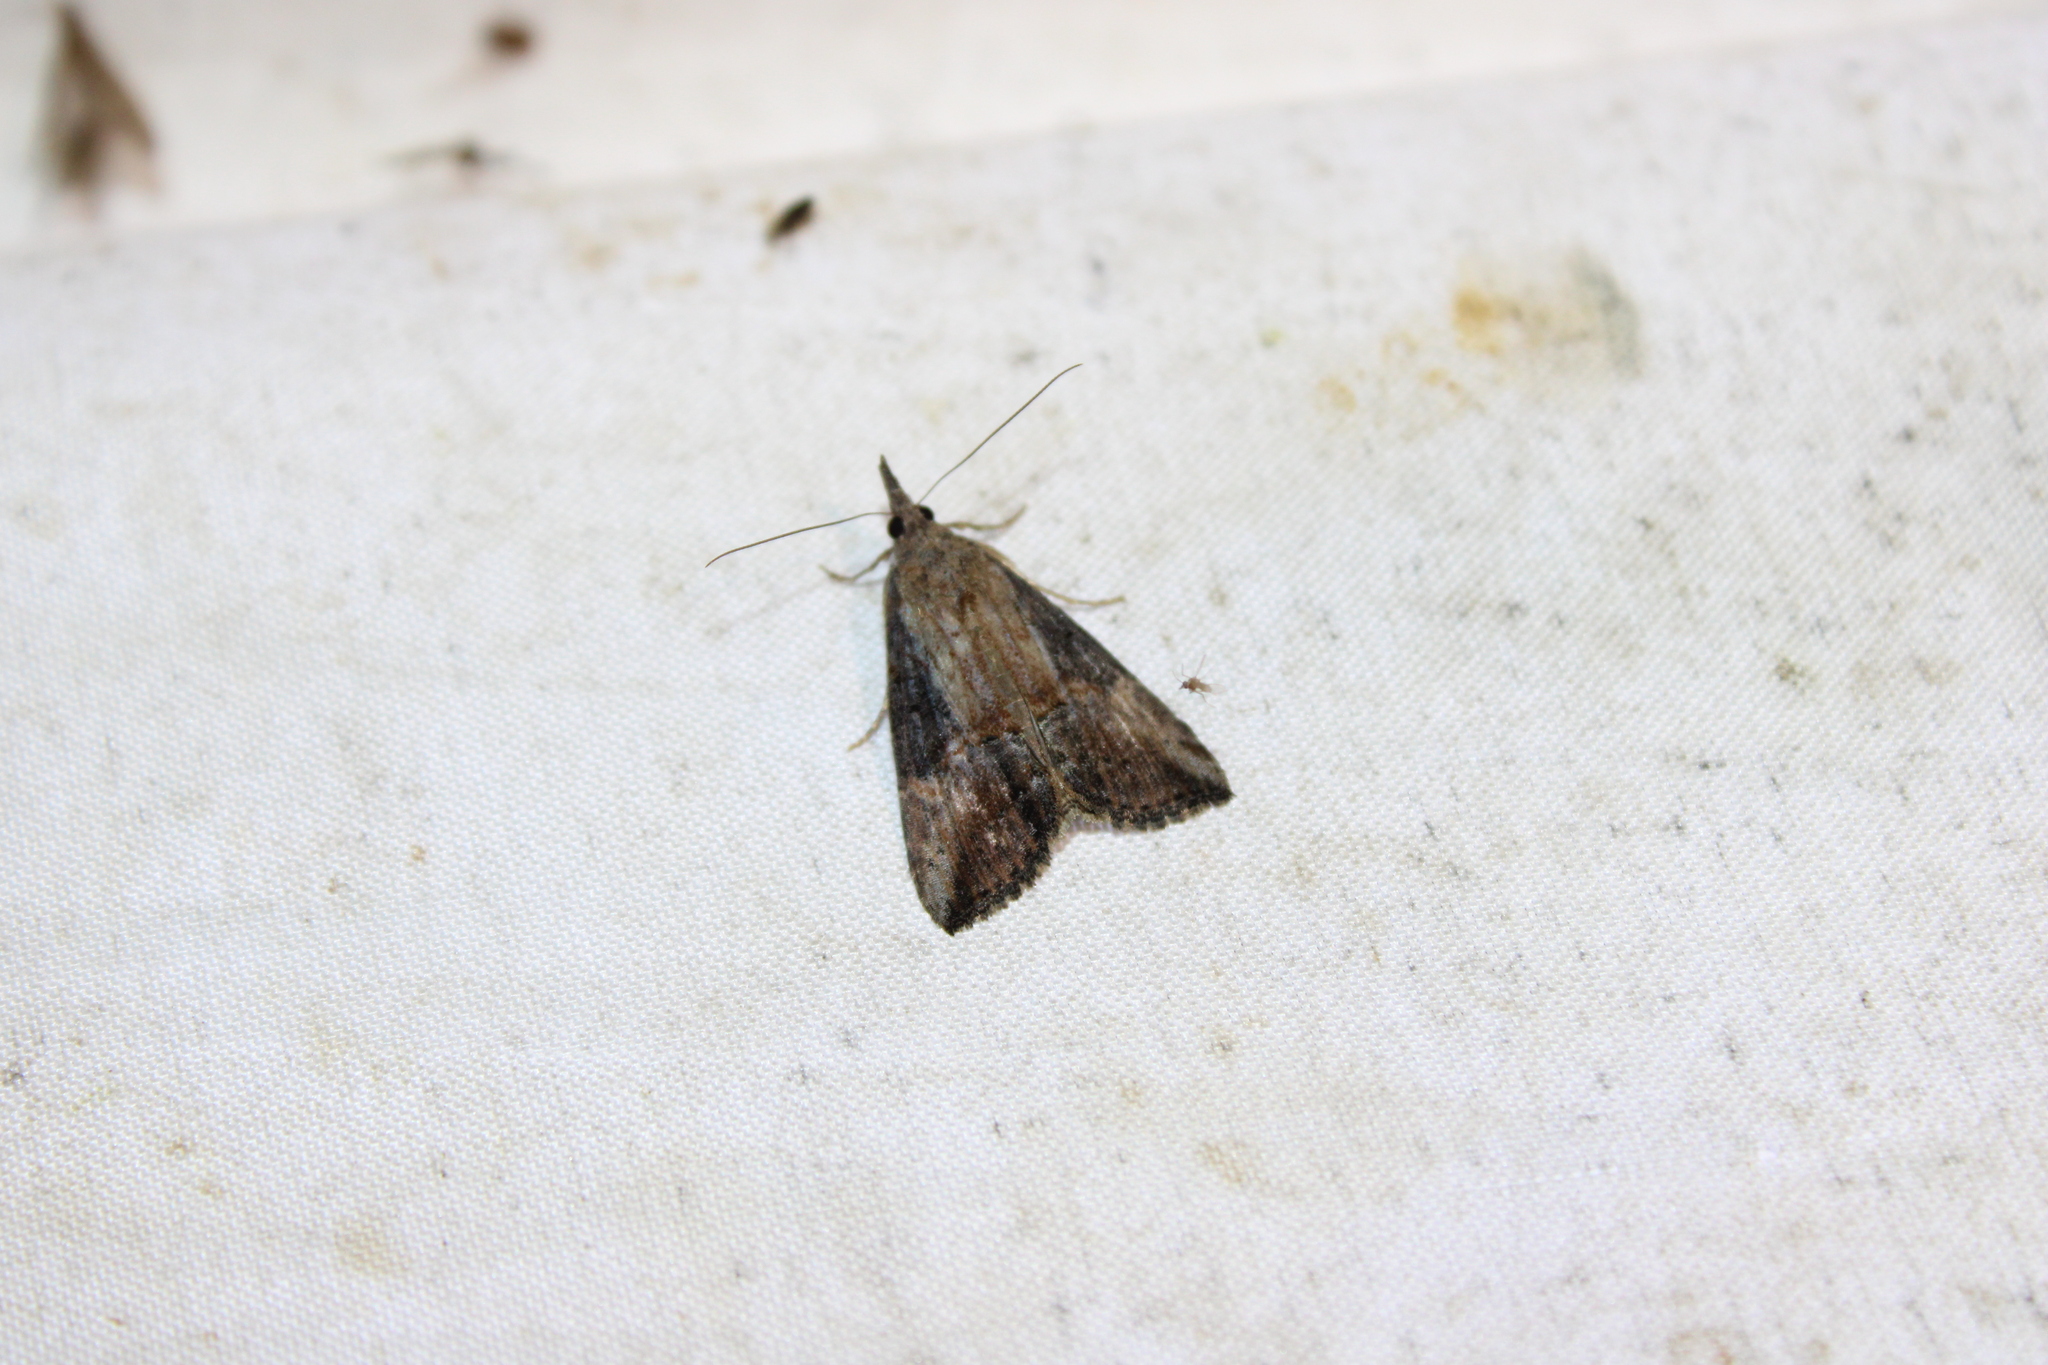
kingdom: Animalia
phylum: Arthropoda
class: Insecta
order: Lepidoptera
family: Erebidae
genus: Hypena
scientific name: Hypena scabra
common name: Green cloverworm
